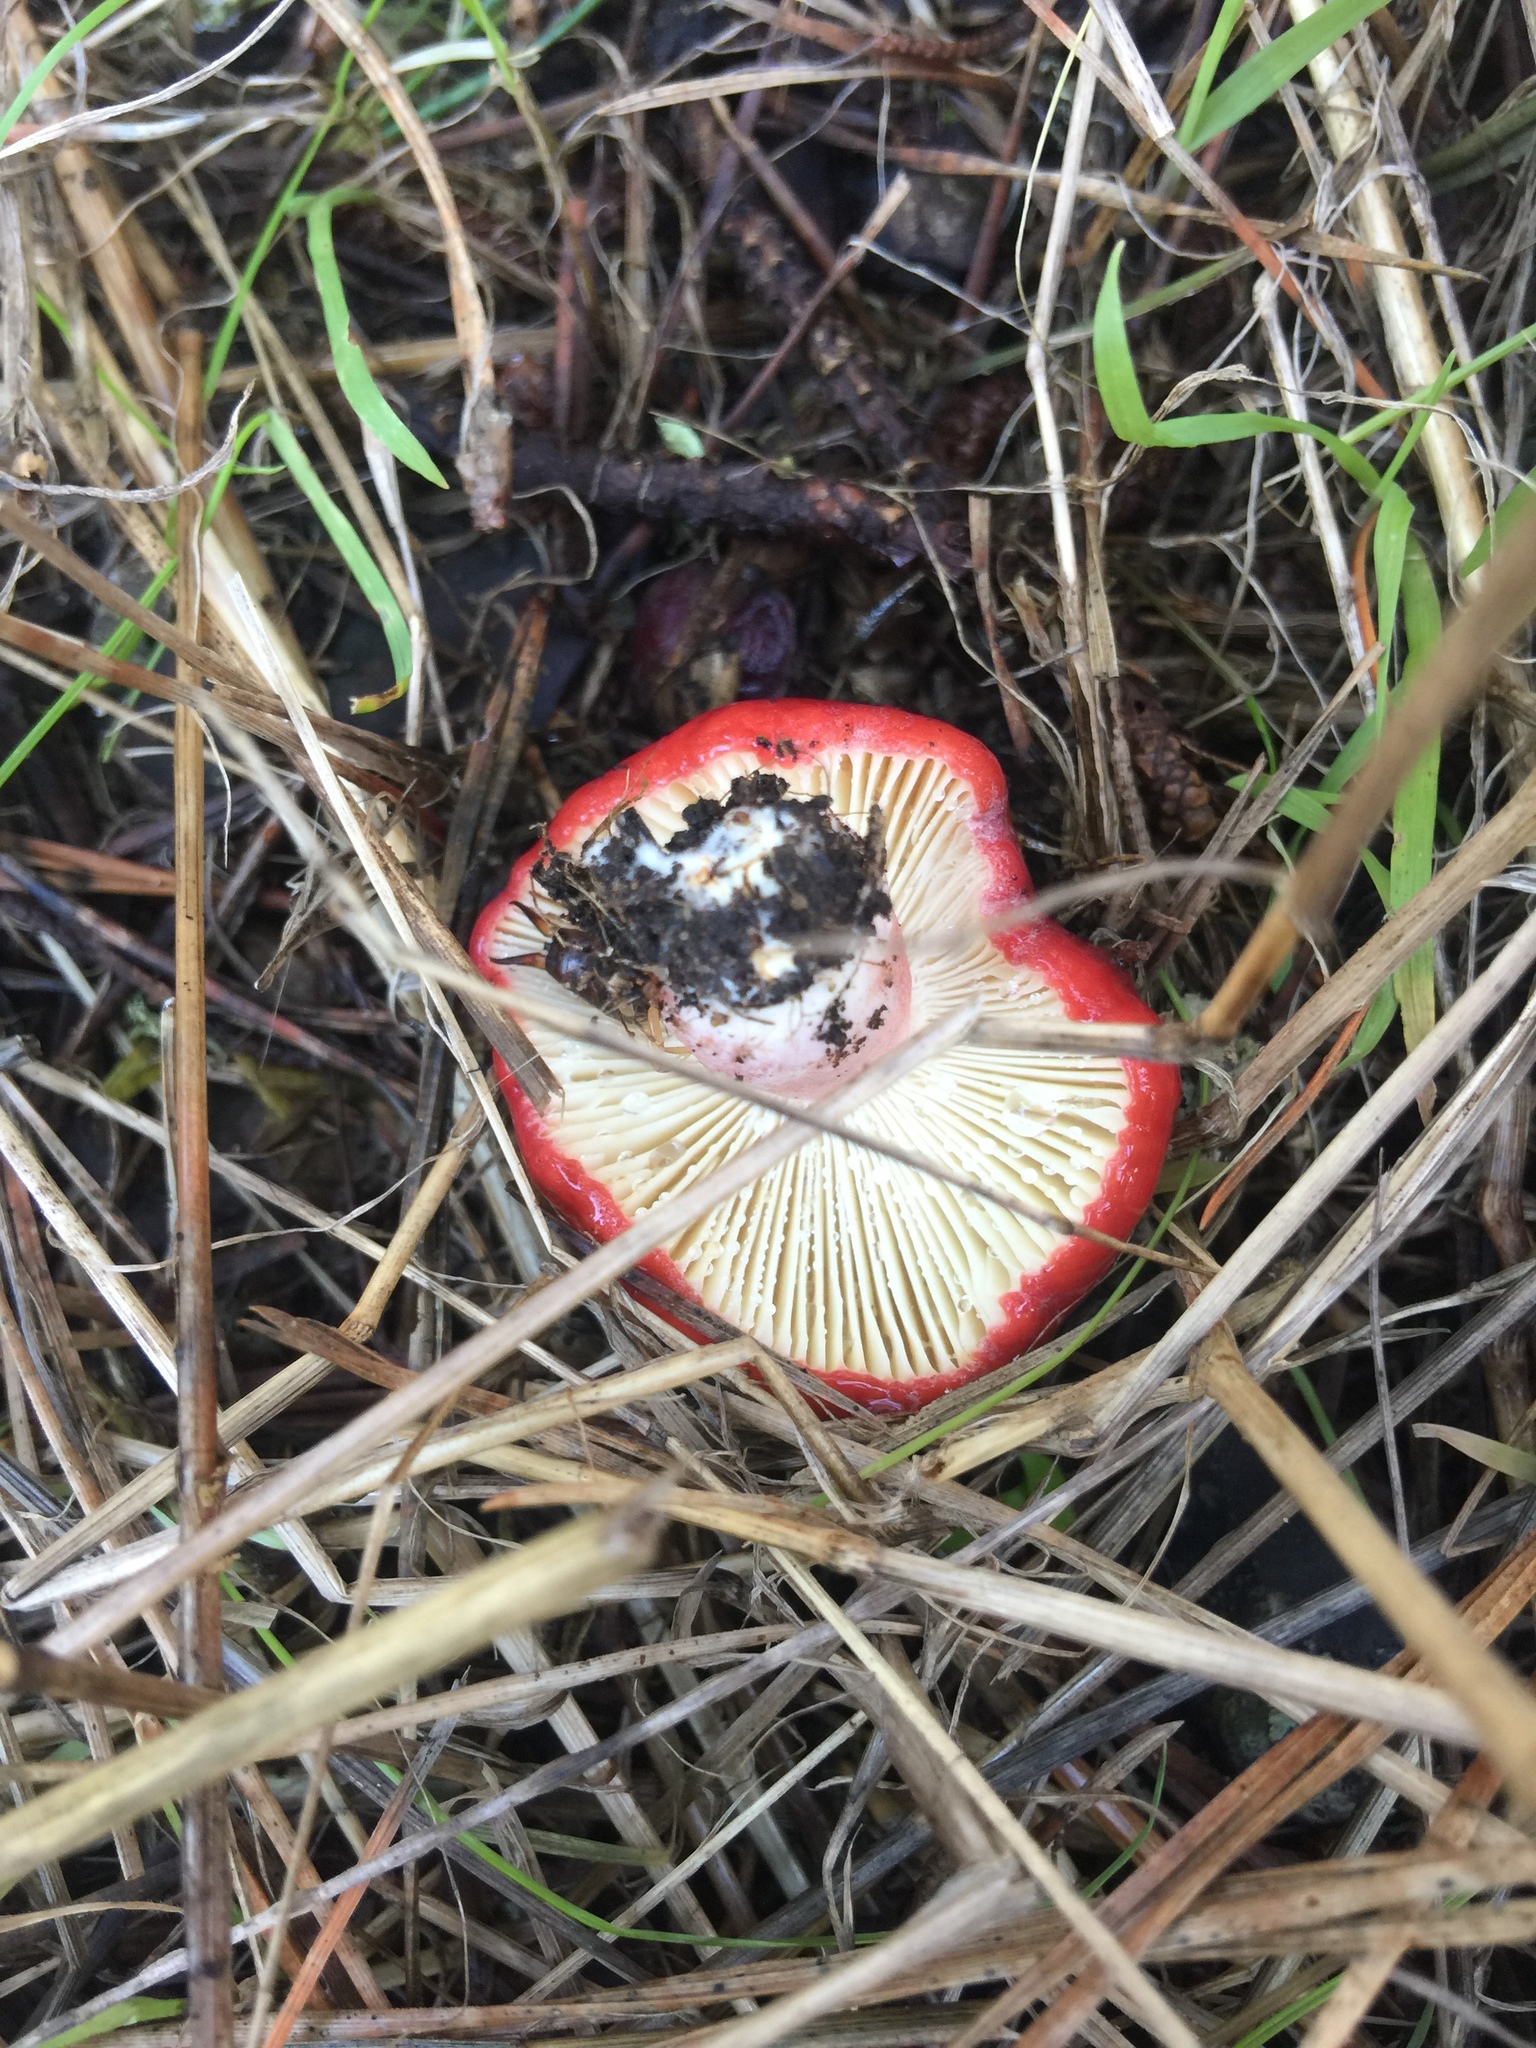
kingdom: Fungi
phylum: Basidiomycota
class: Agaricomycetes
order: Russulales
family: Russulaceae
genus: Russula
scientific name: Russula rhodocephala
